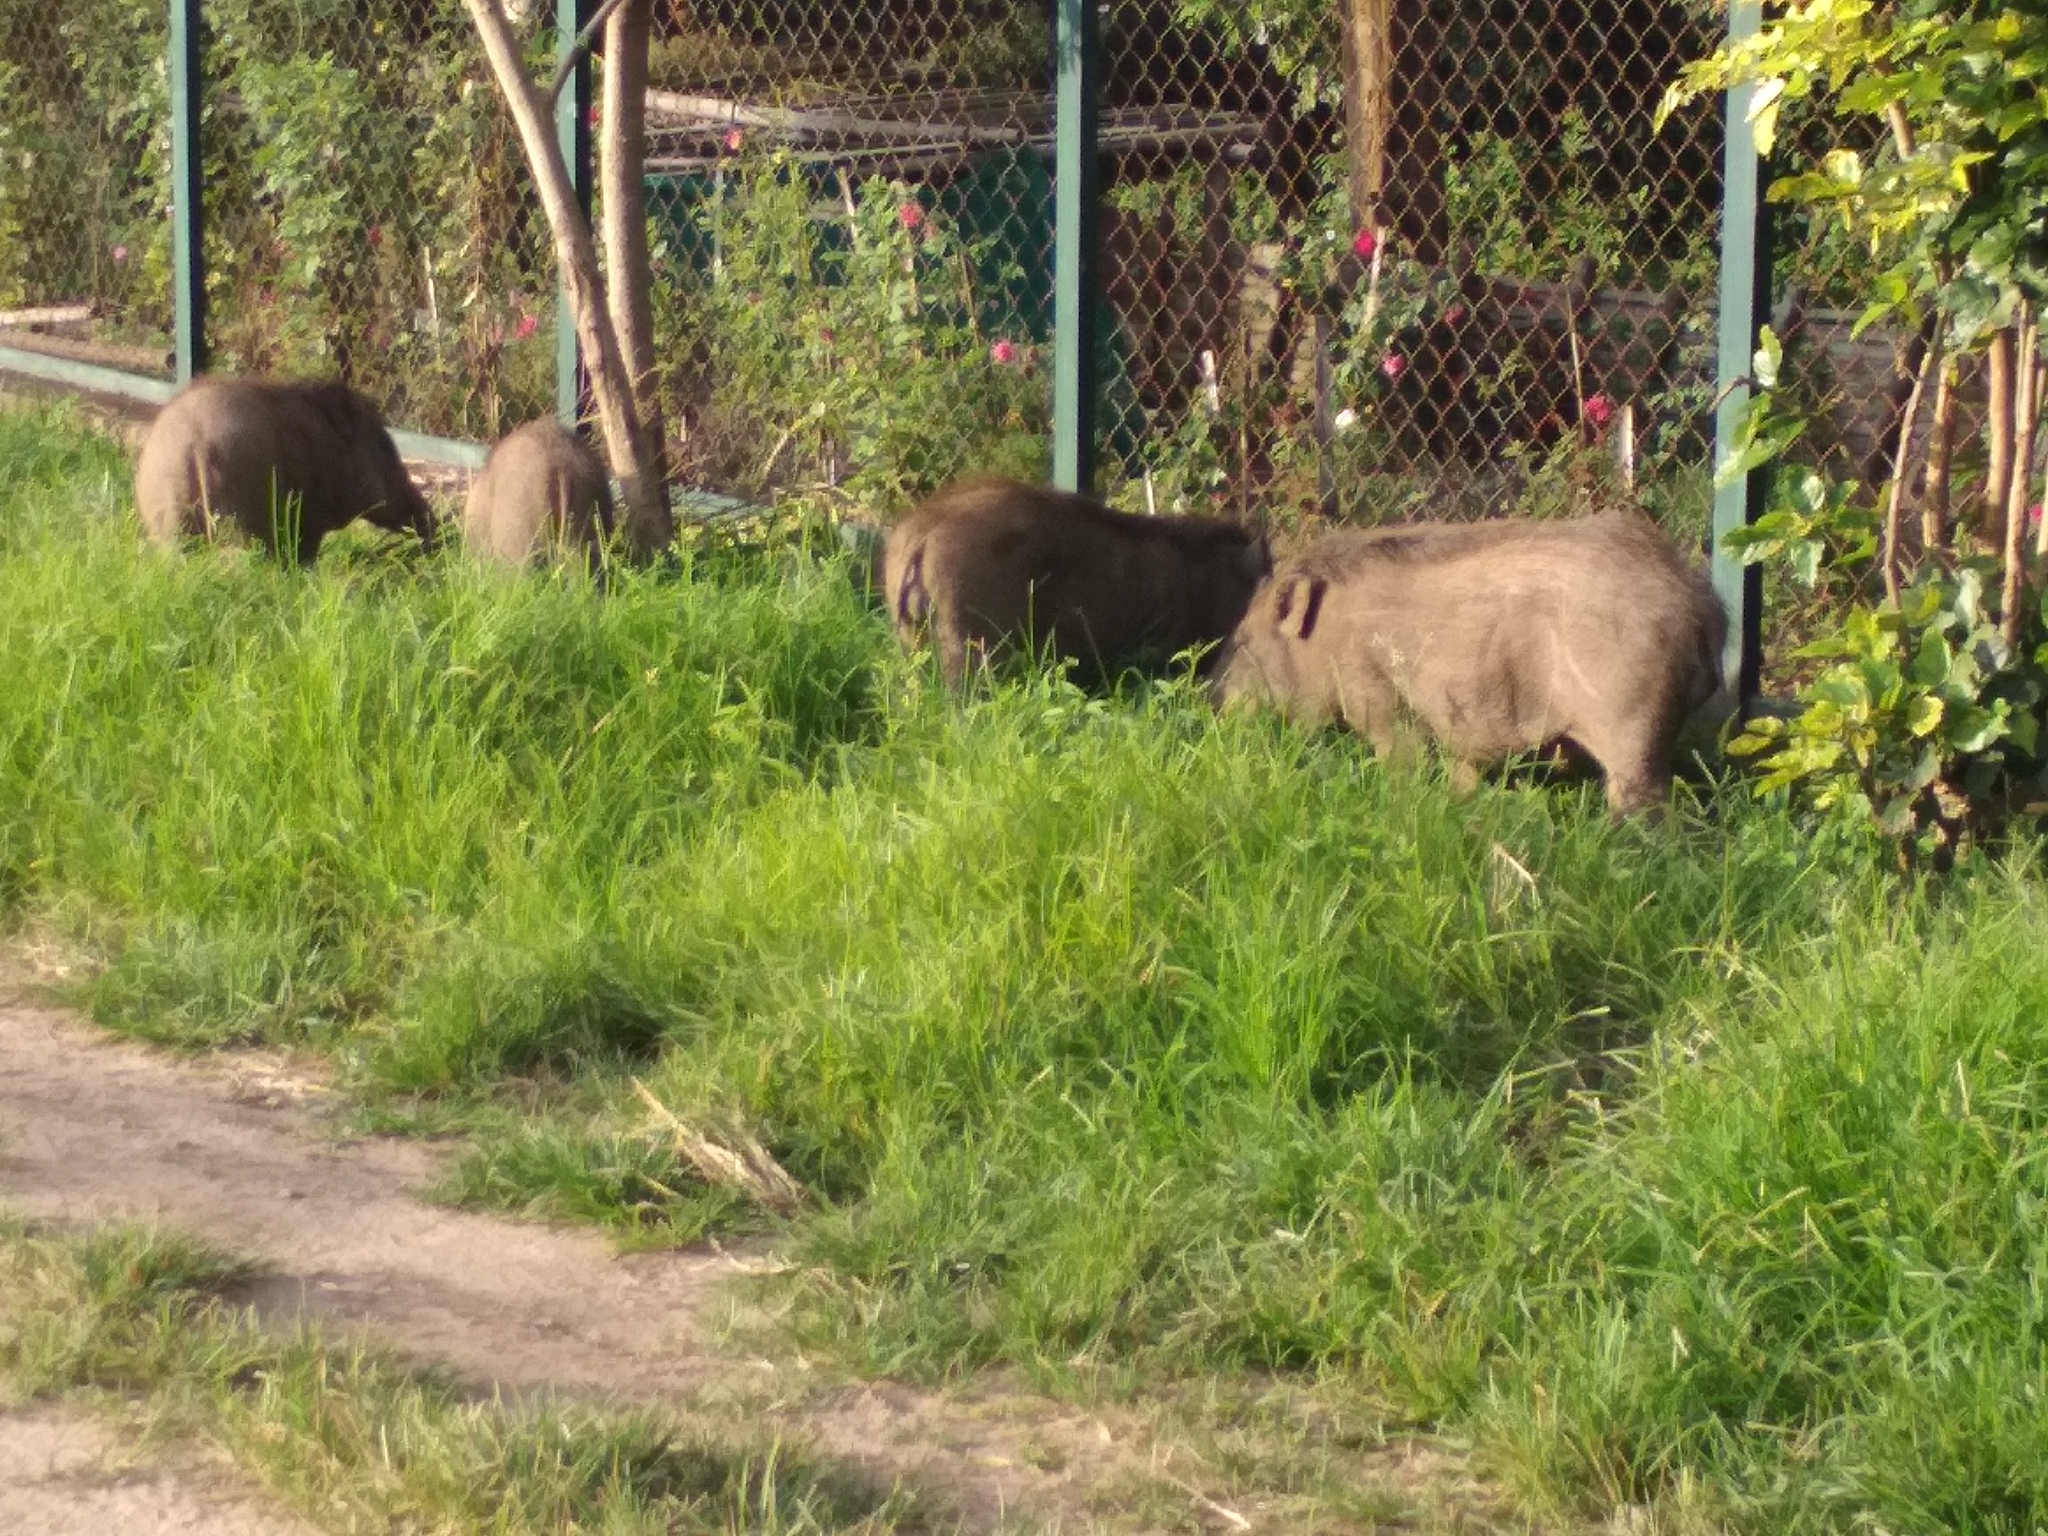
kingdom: Animalia
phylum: Chordata
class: Mammalia
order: Artiodactyla
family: Suidae
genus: Sus
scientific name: Sus scrofa
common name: Wild boar
